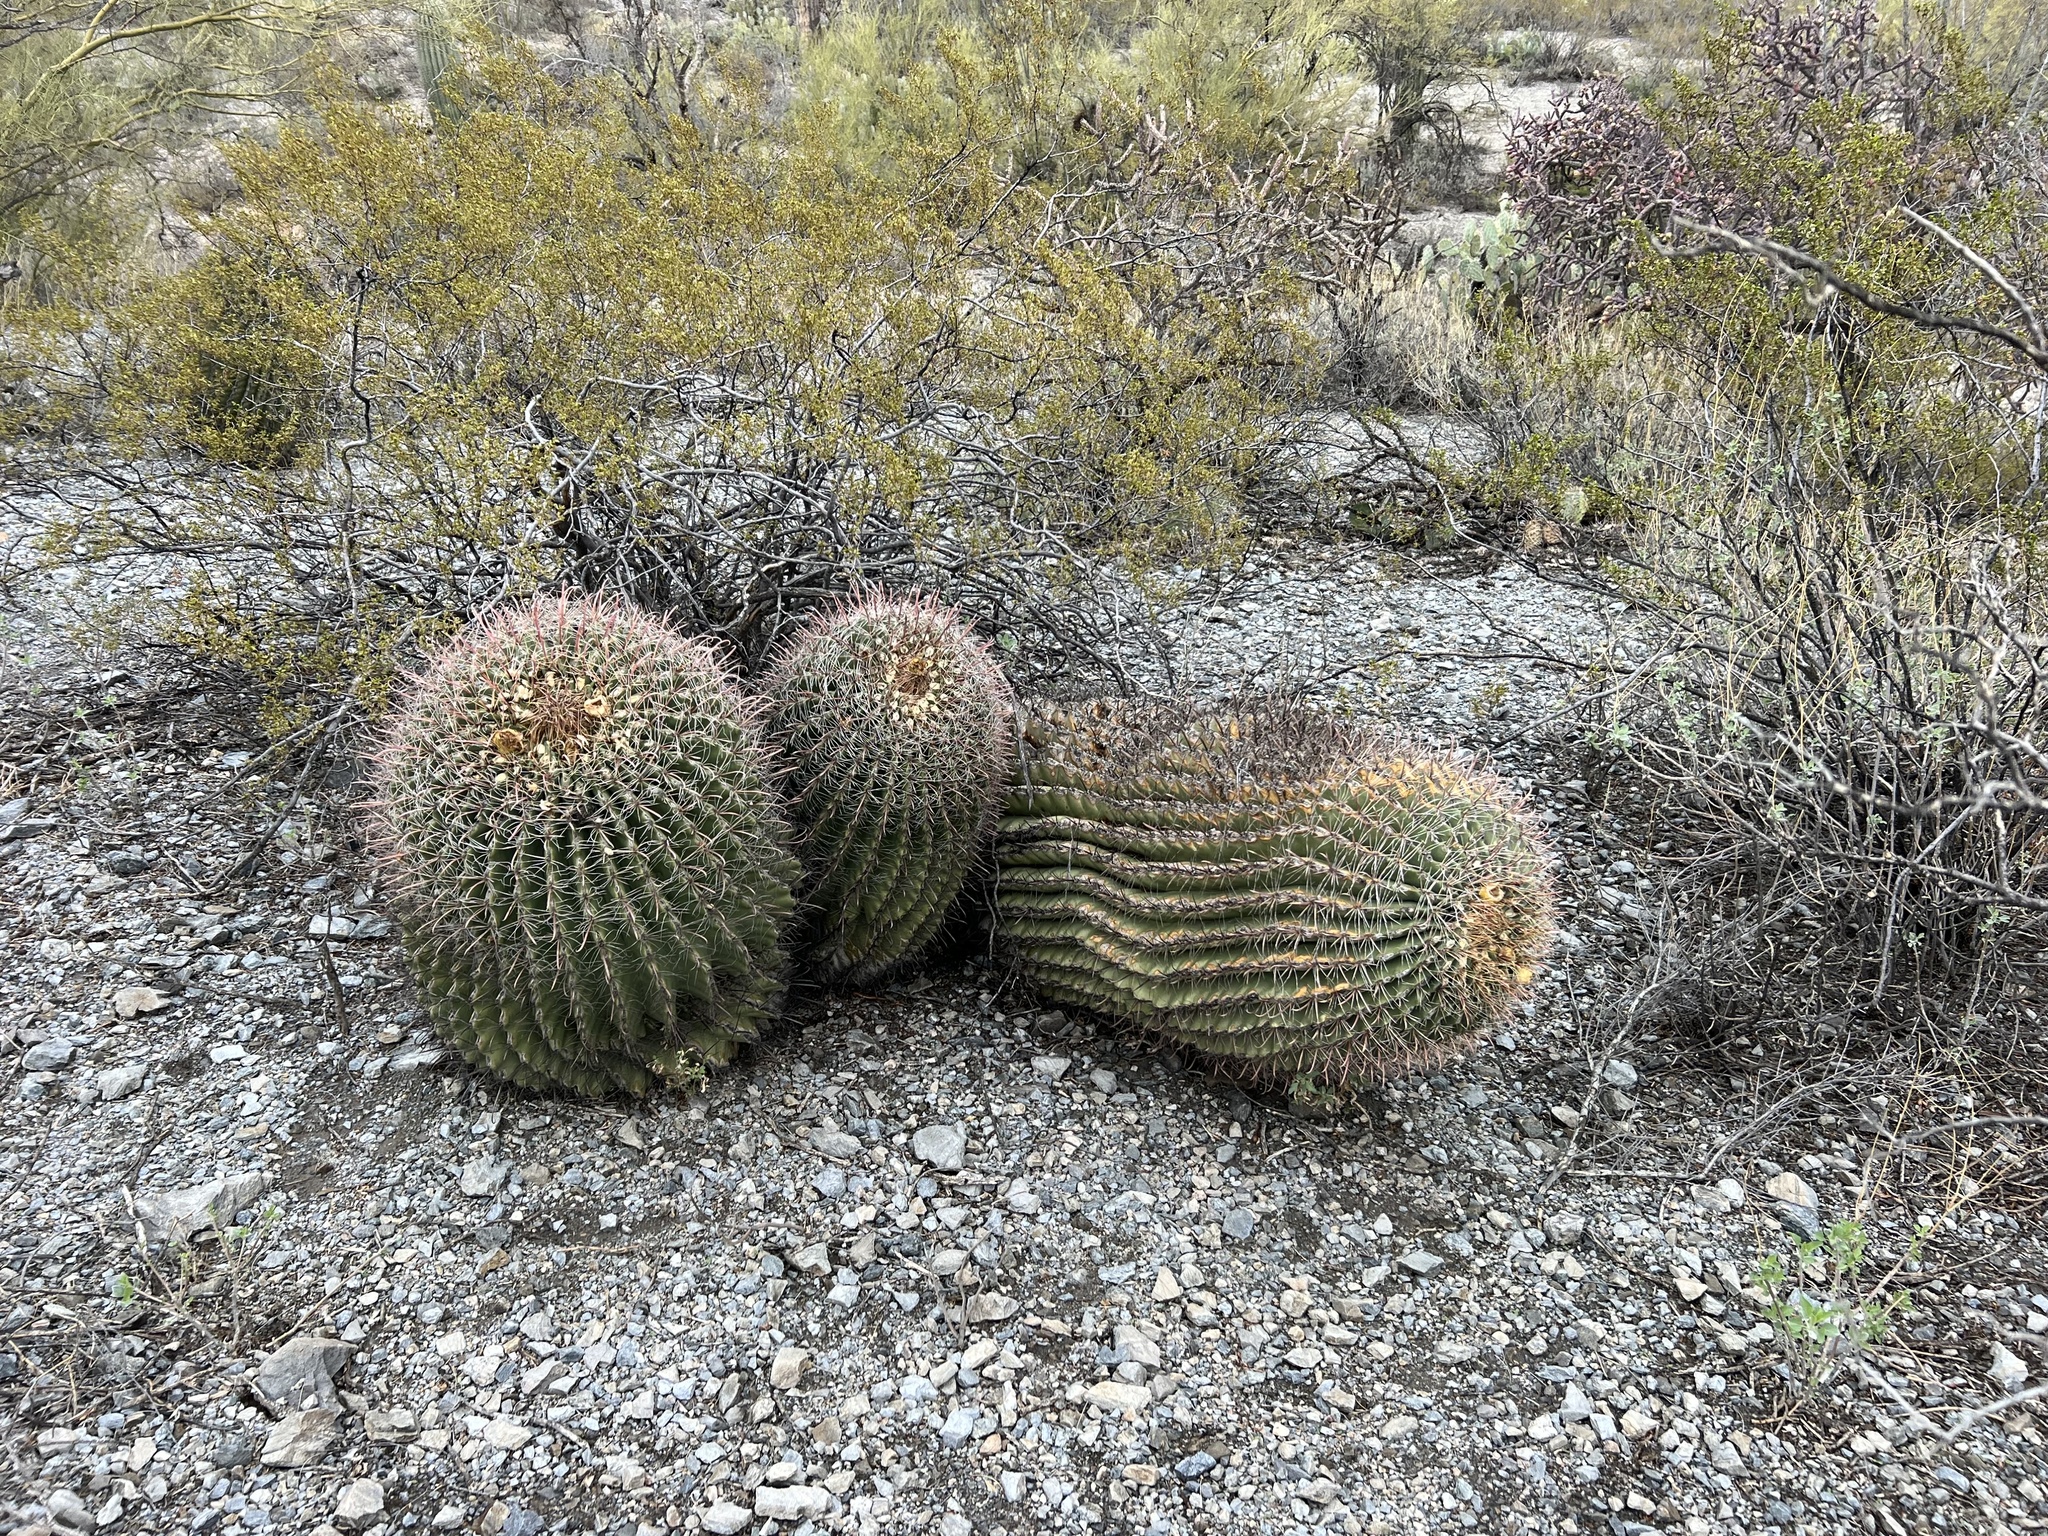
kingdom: Plantae
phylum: Tracheophyta
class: Magnoliopsida
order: Caryophyllales
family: Cactaceae
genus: Ferocactus
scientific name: Ferocactus wislizeni
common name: Candy barrel cactus
